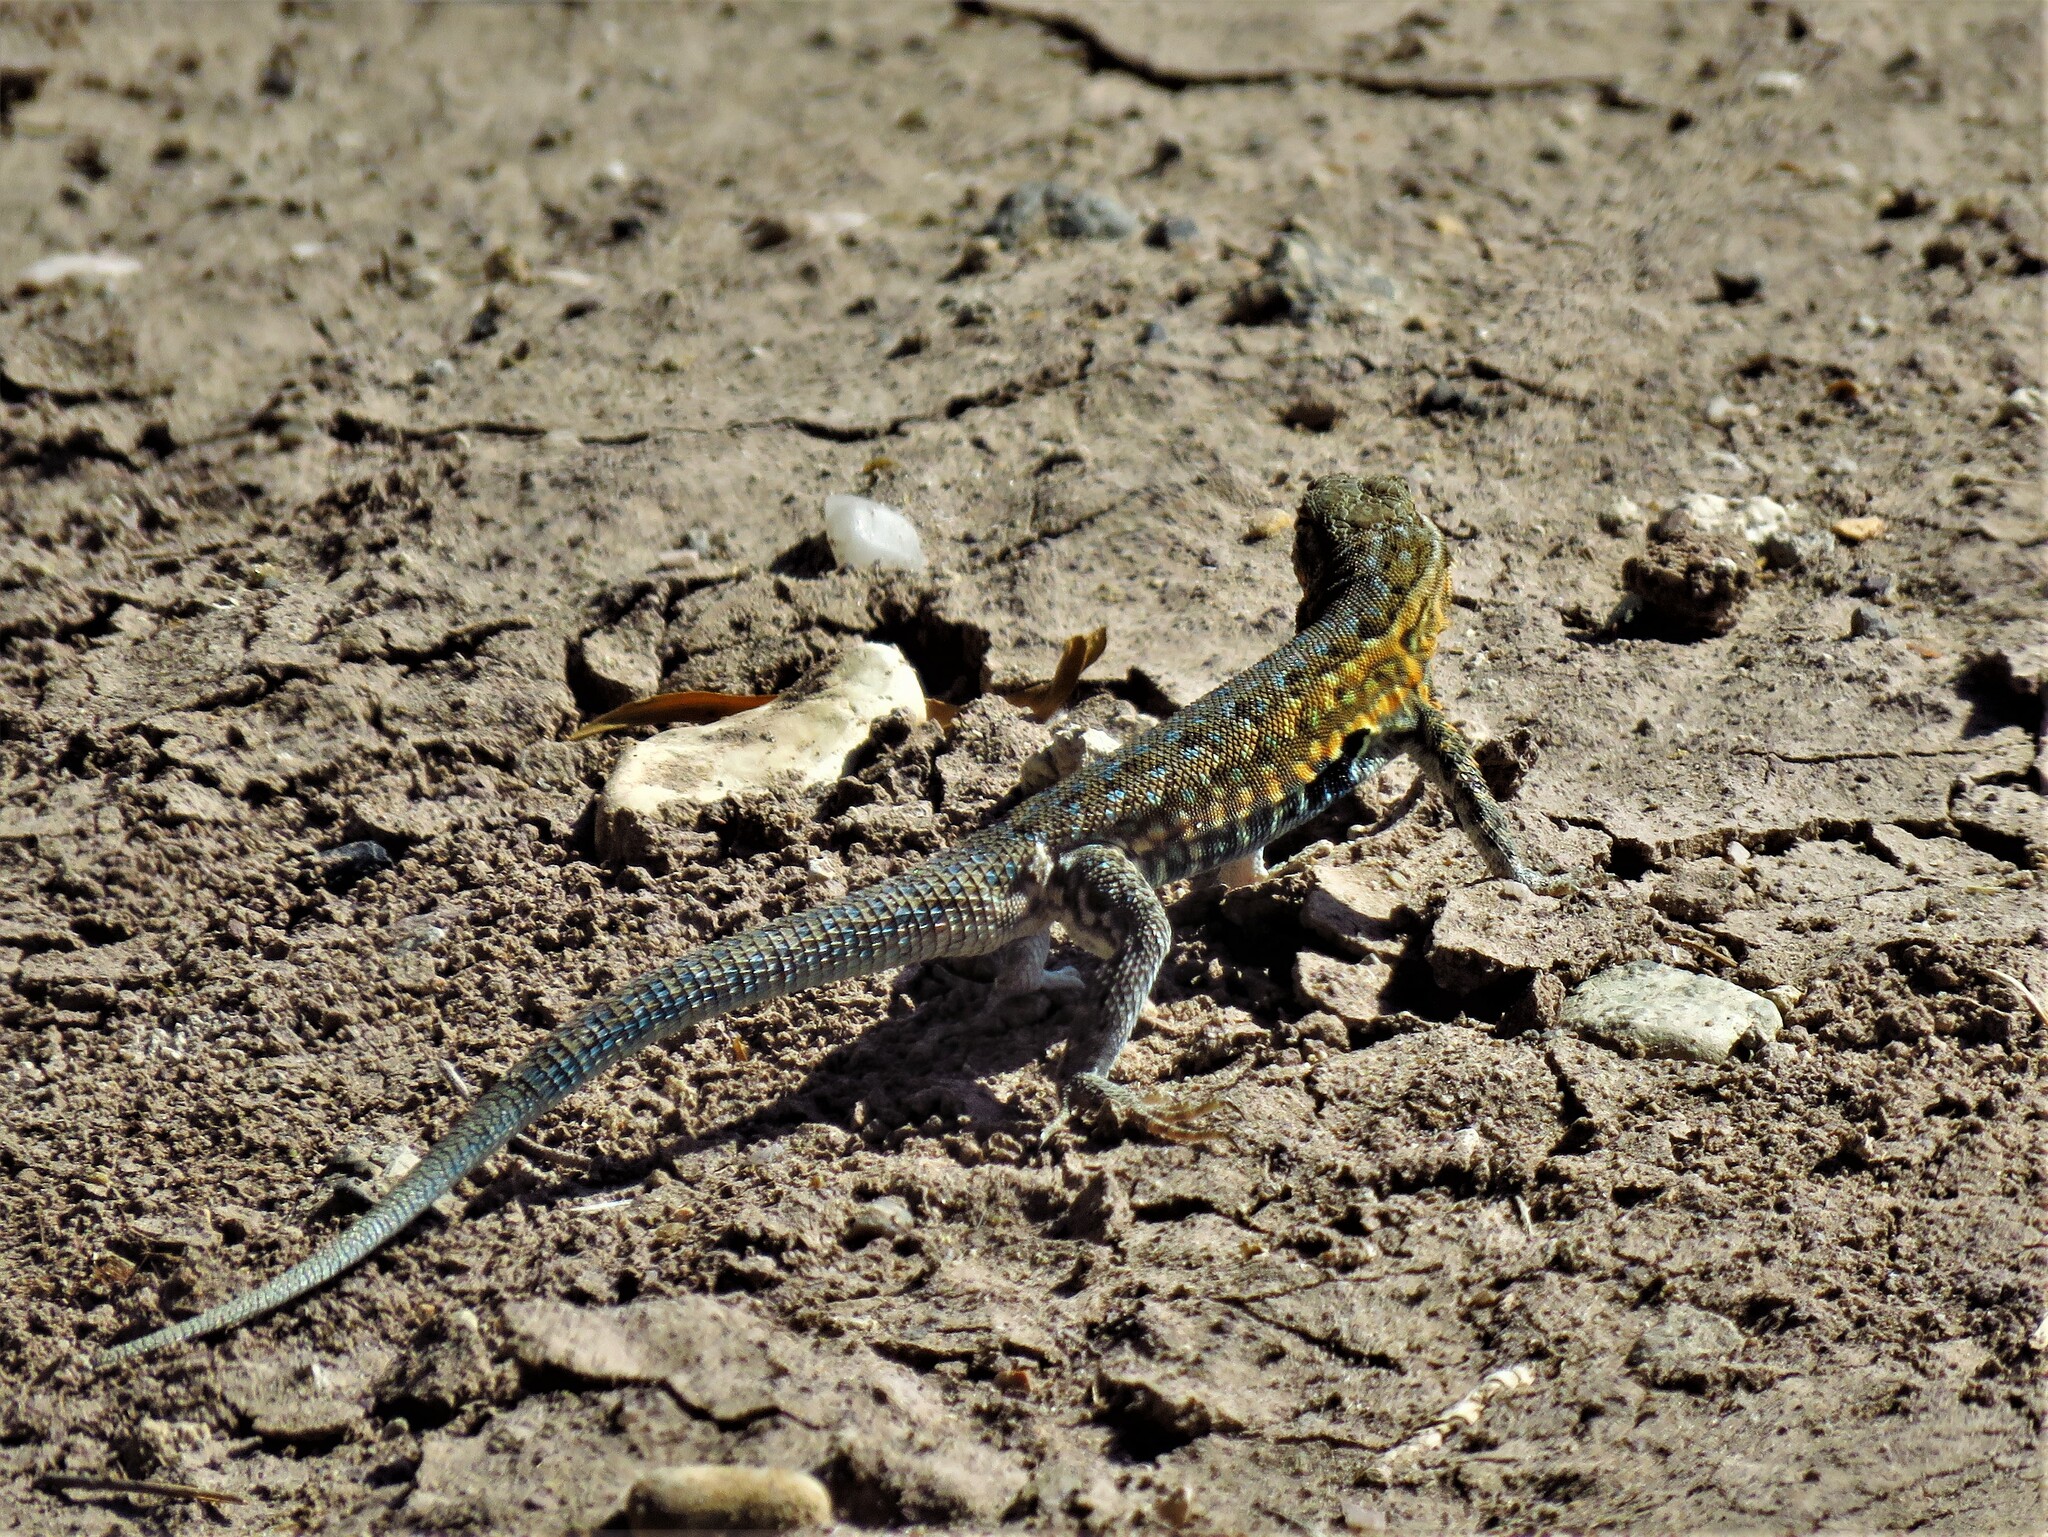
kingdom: Animalia
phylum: Chordata
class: Squamata
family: Phrynosomatidae
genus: Uta
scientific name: Uta stansburiana
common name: Side-blotched lizard
